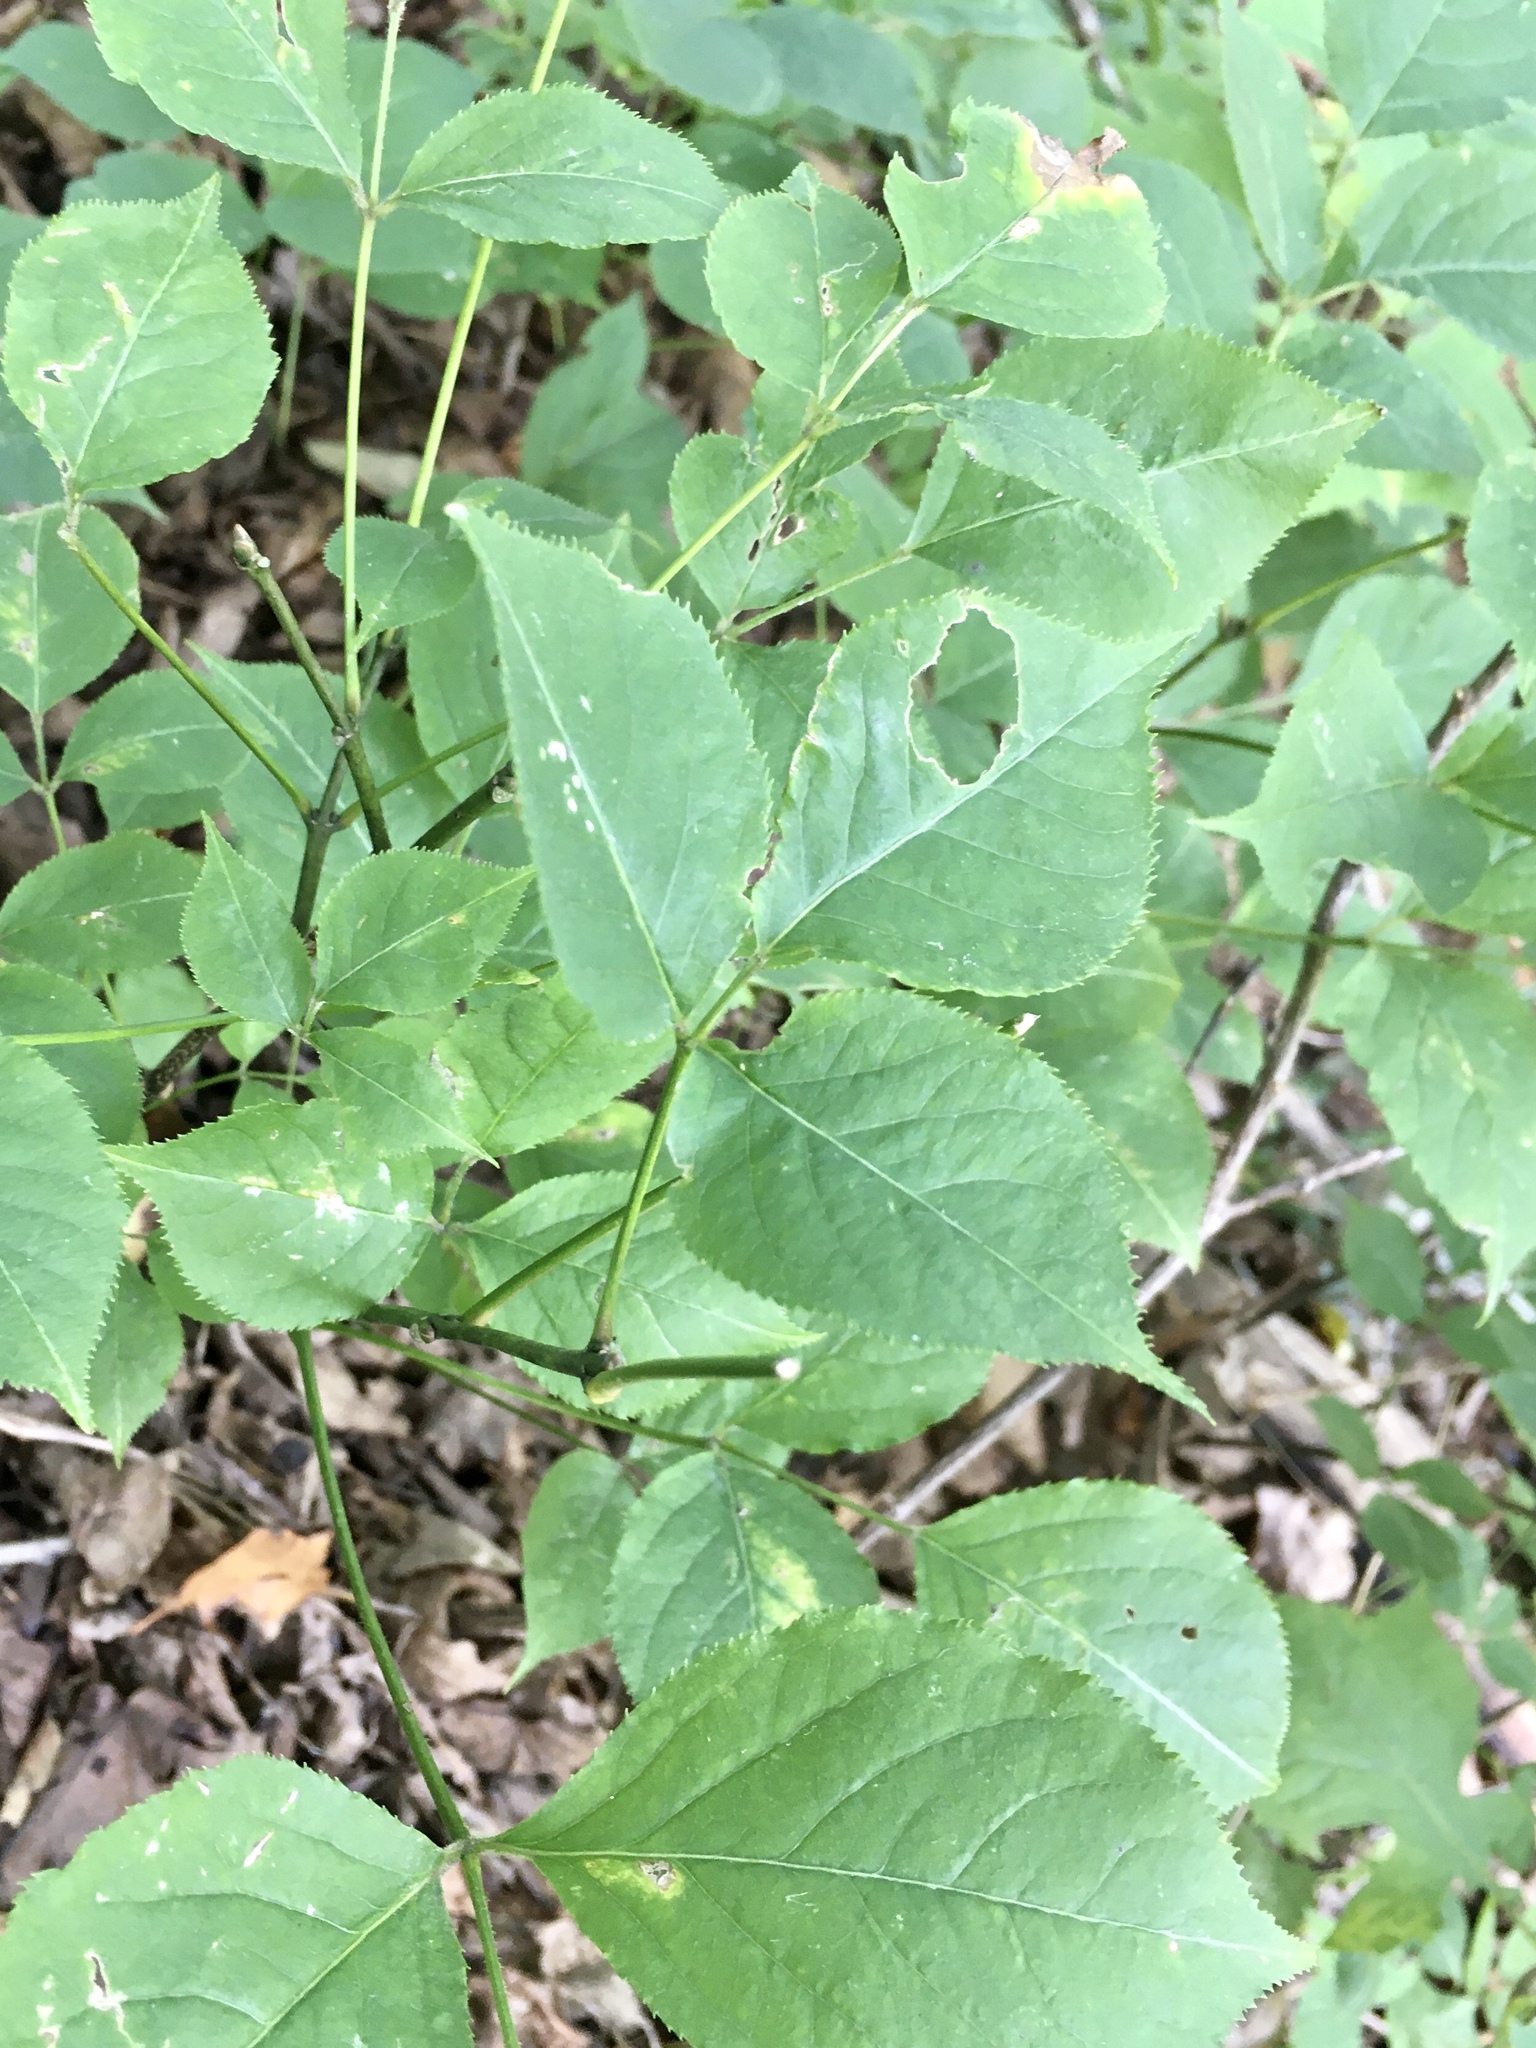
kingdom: Plantae
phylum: Tracheophyta
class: Magnoliopsida
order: Crossosomatales
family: Staphyleaceae
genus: Staphylea
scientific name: Staphylea trifolia
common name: American bladdernut
